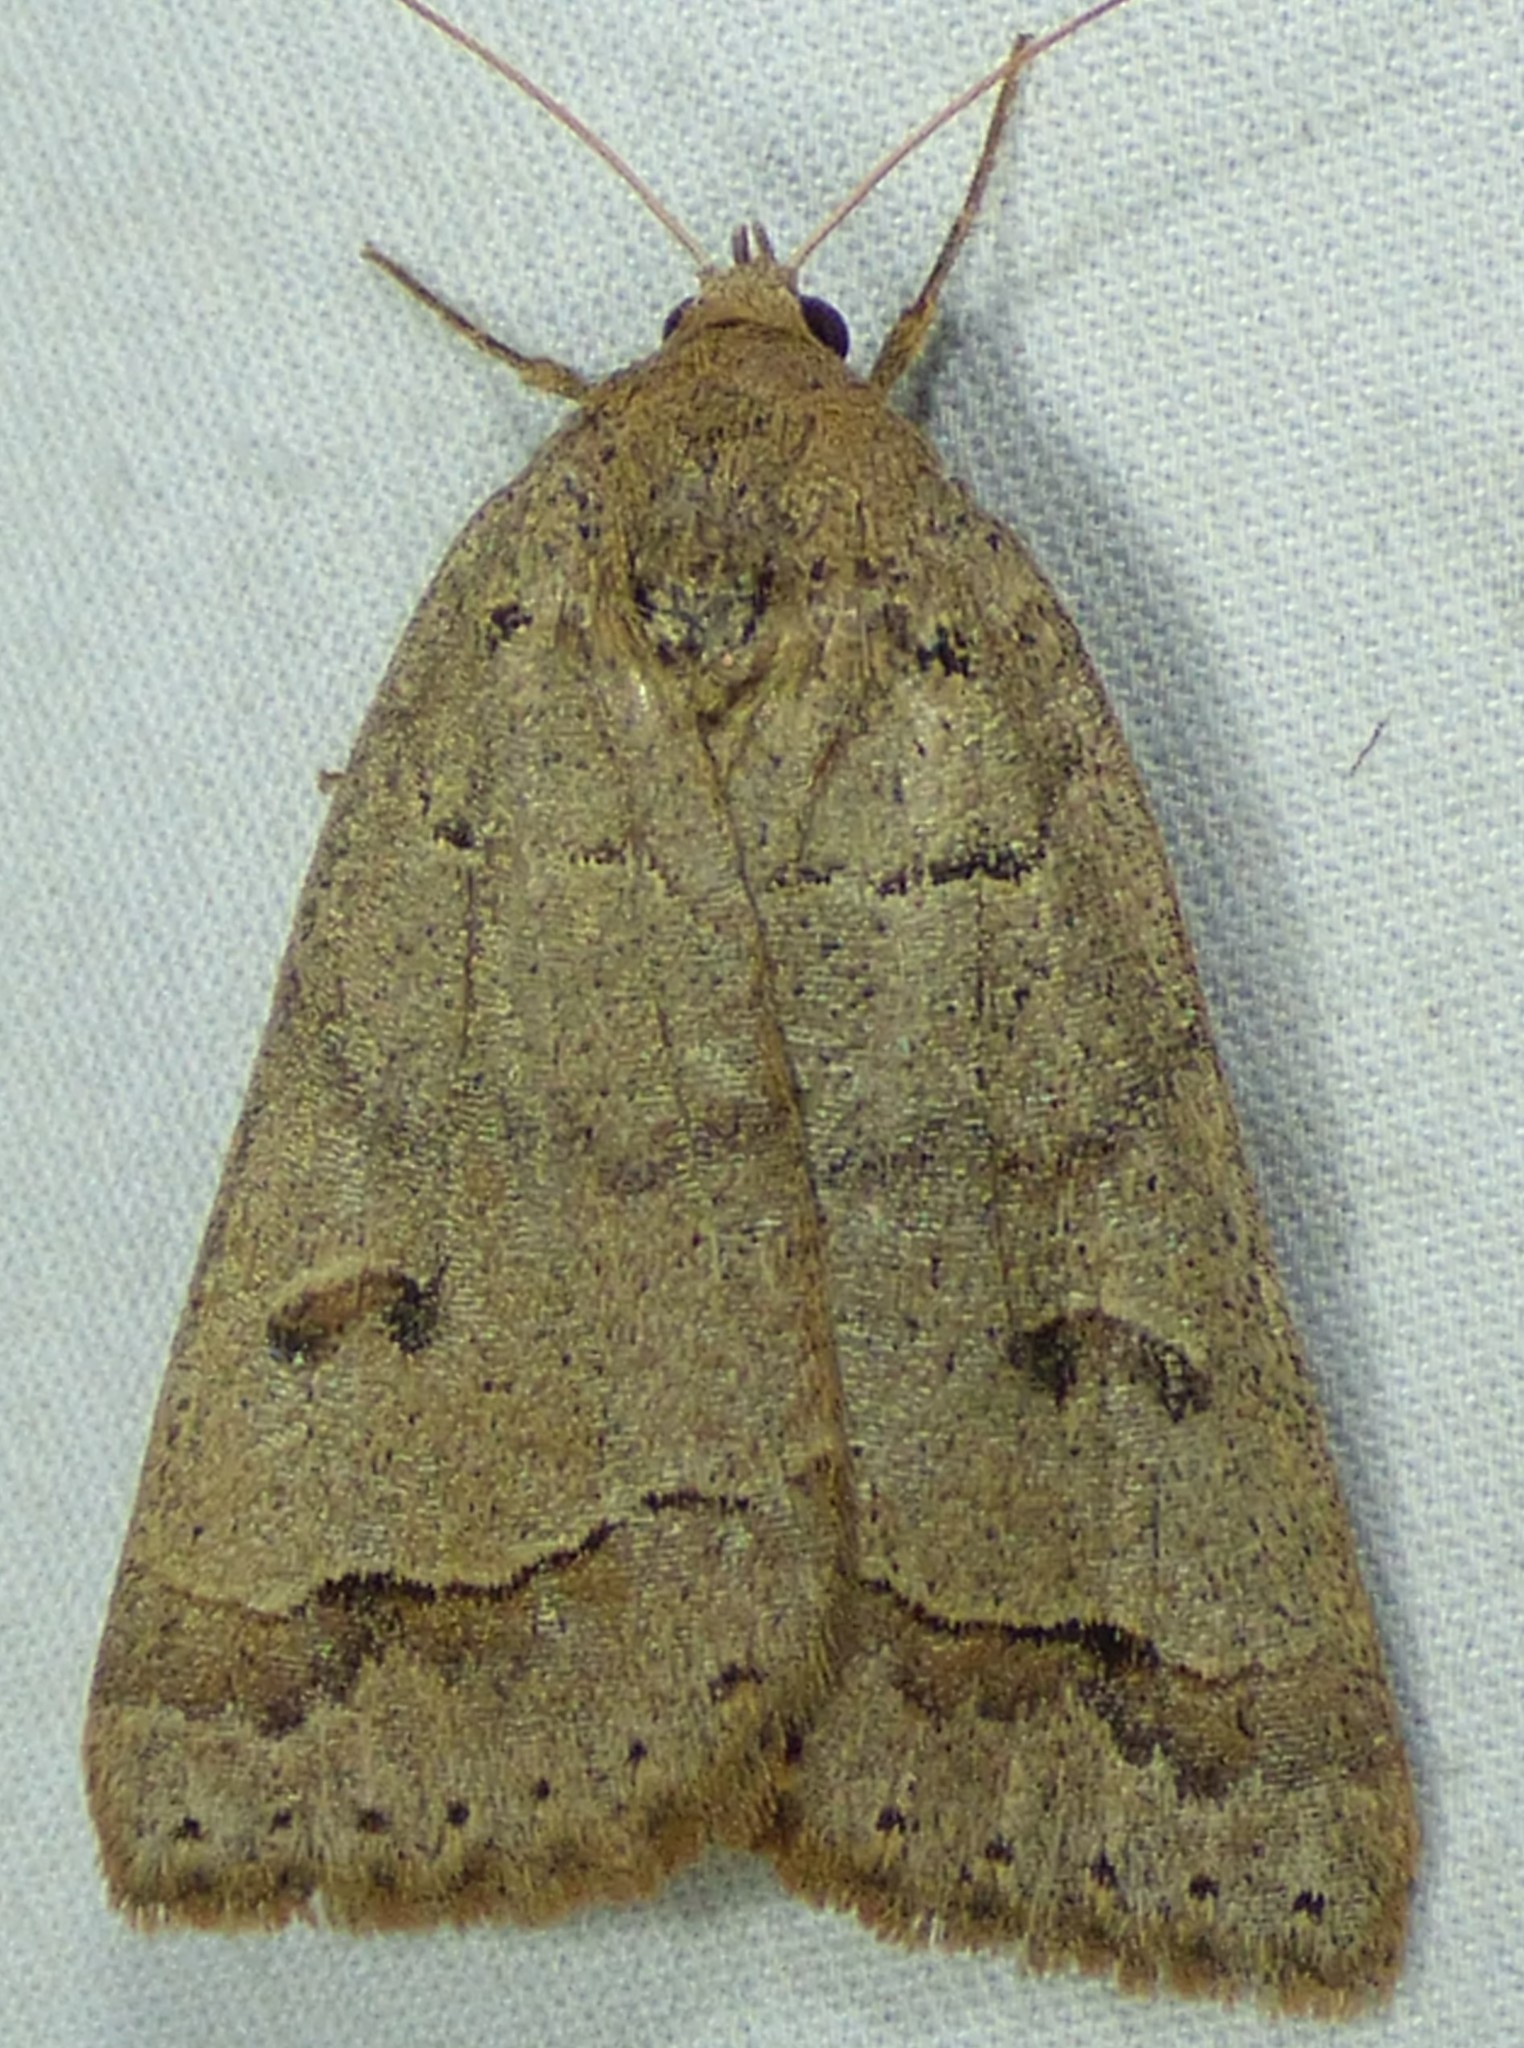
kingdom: Animalia
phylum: Arthropoda
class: Insecta
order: Lepidoptera
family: Erebidae
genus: Phoberia
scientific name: Phoberia atomaris
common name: Common oak moth
